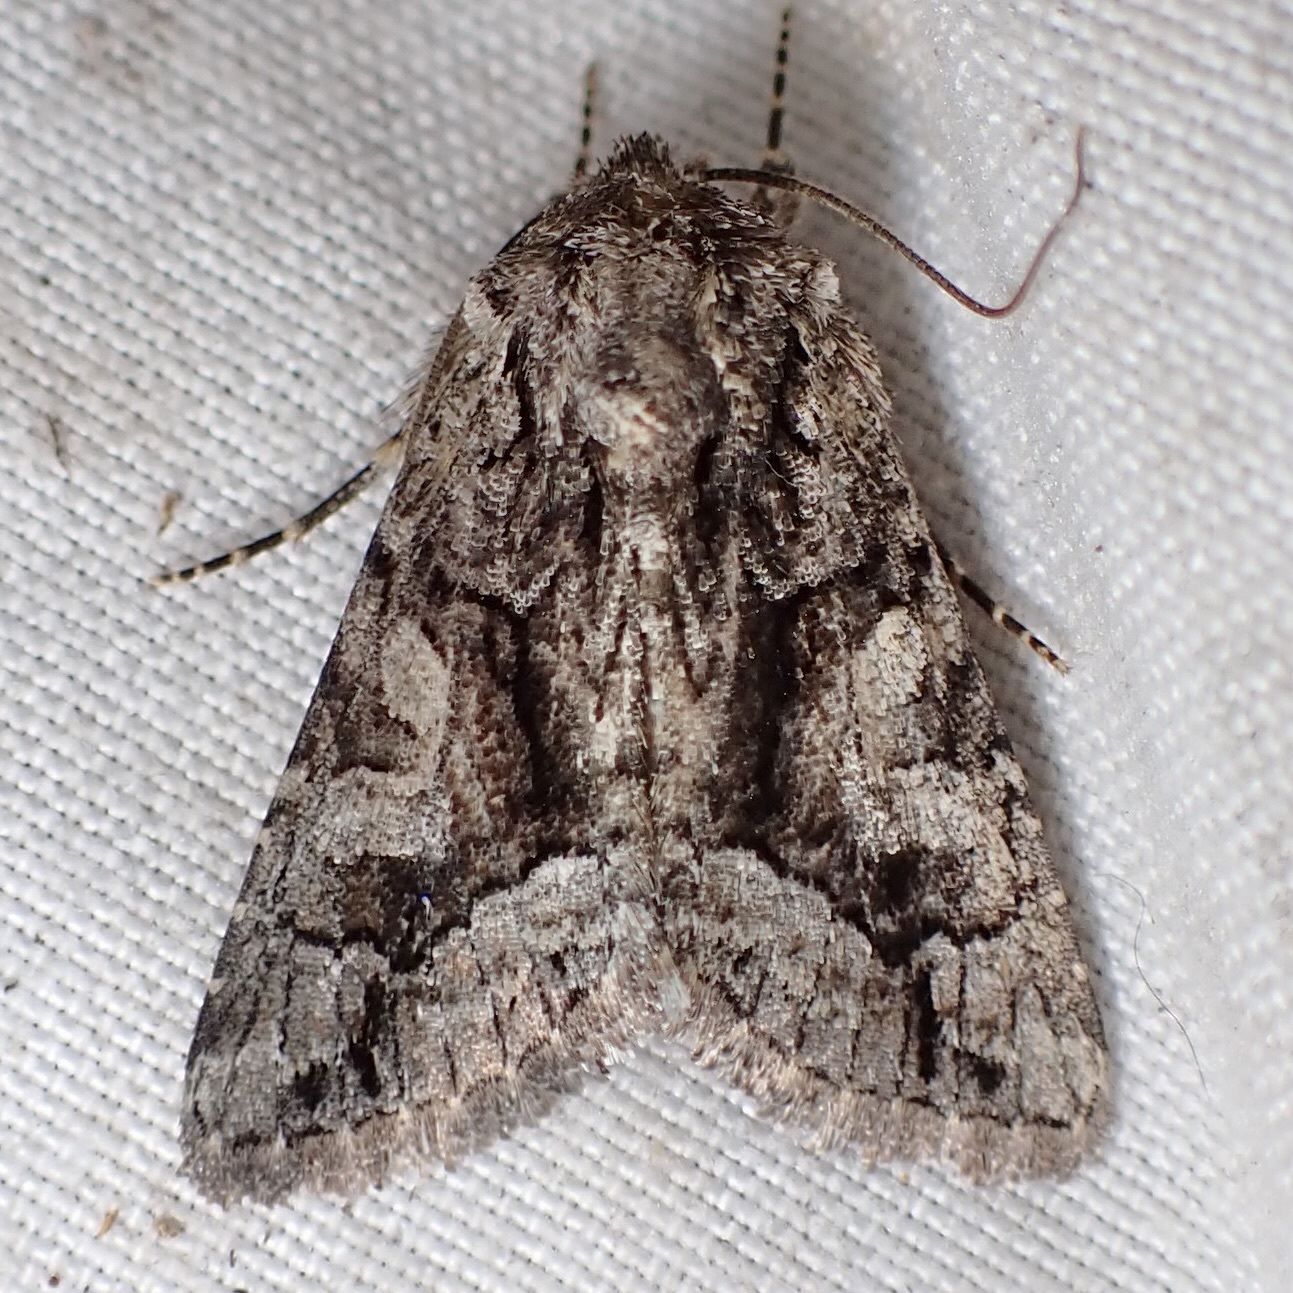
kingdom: Animalia
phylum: Arthropoda
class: Insecta
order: Lepidoptera
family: Noctuidae
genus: Pseudanarta
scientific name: Pseudanarta singula
